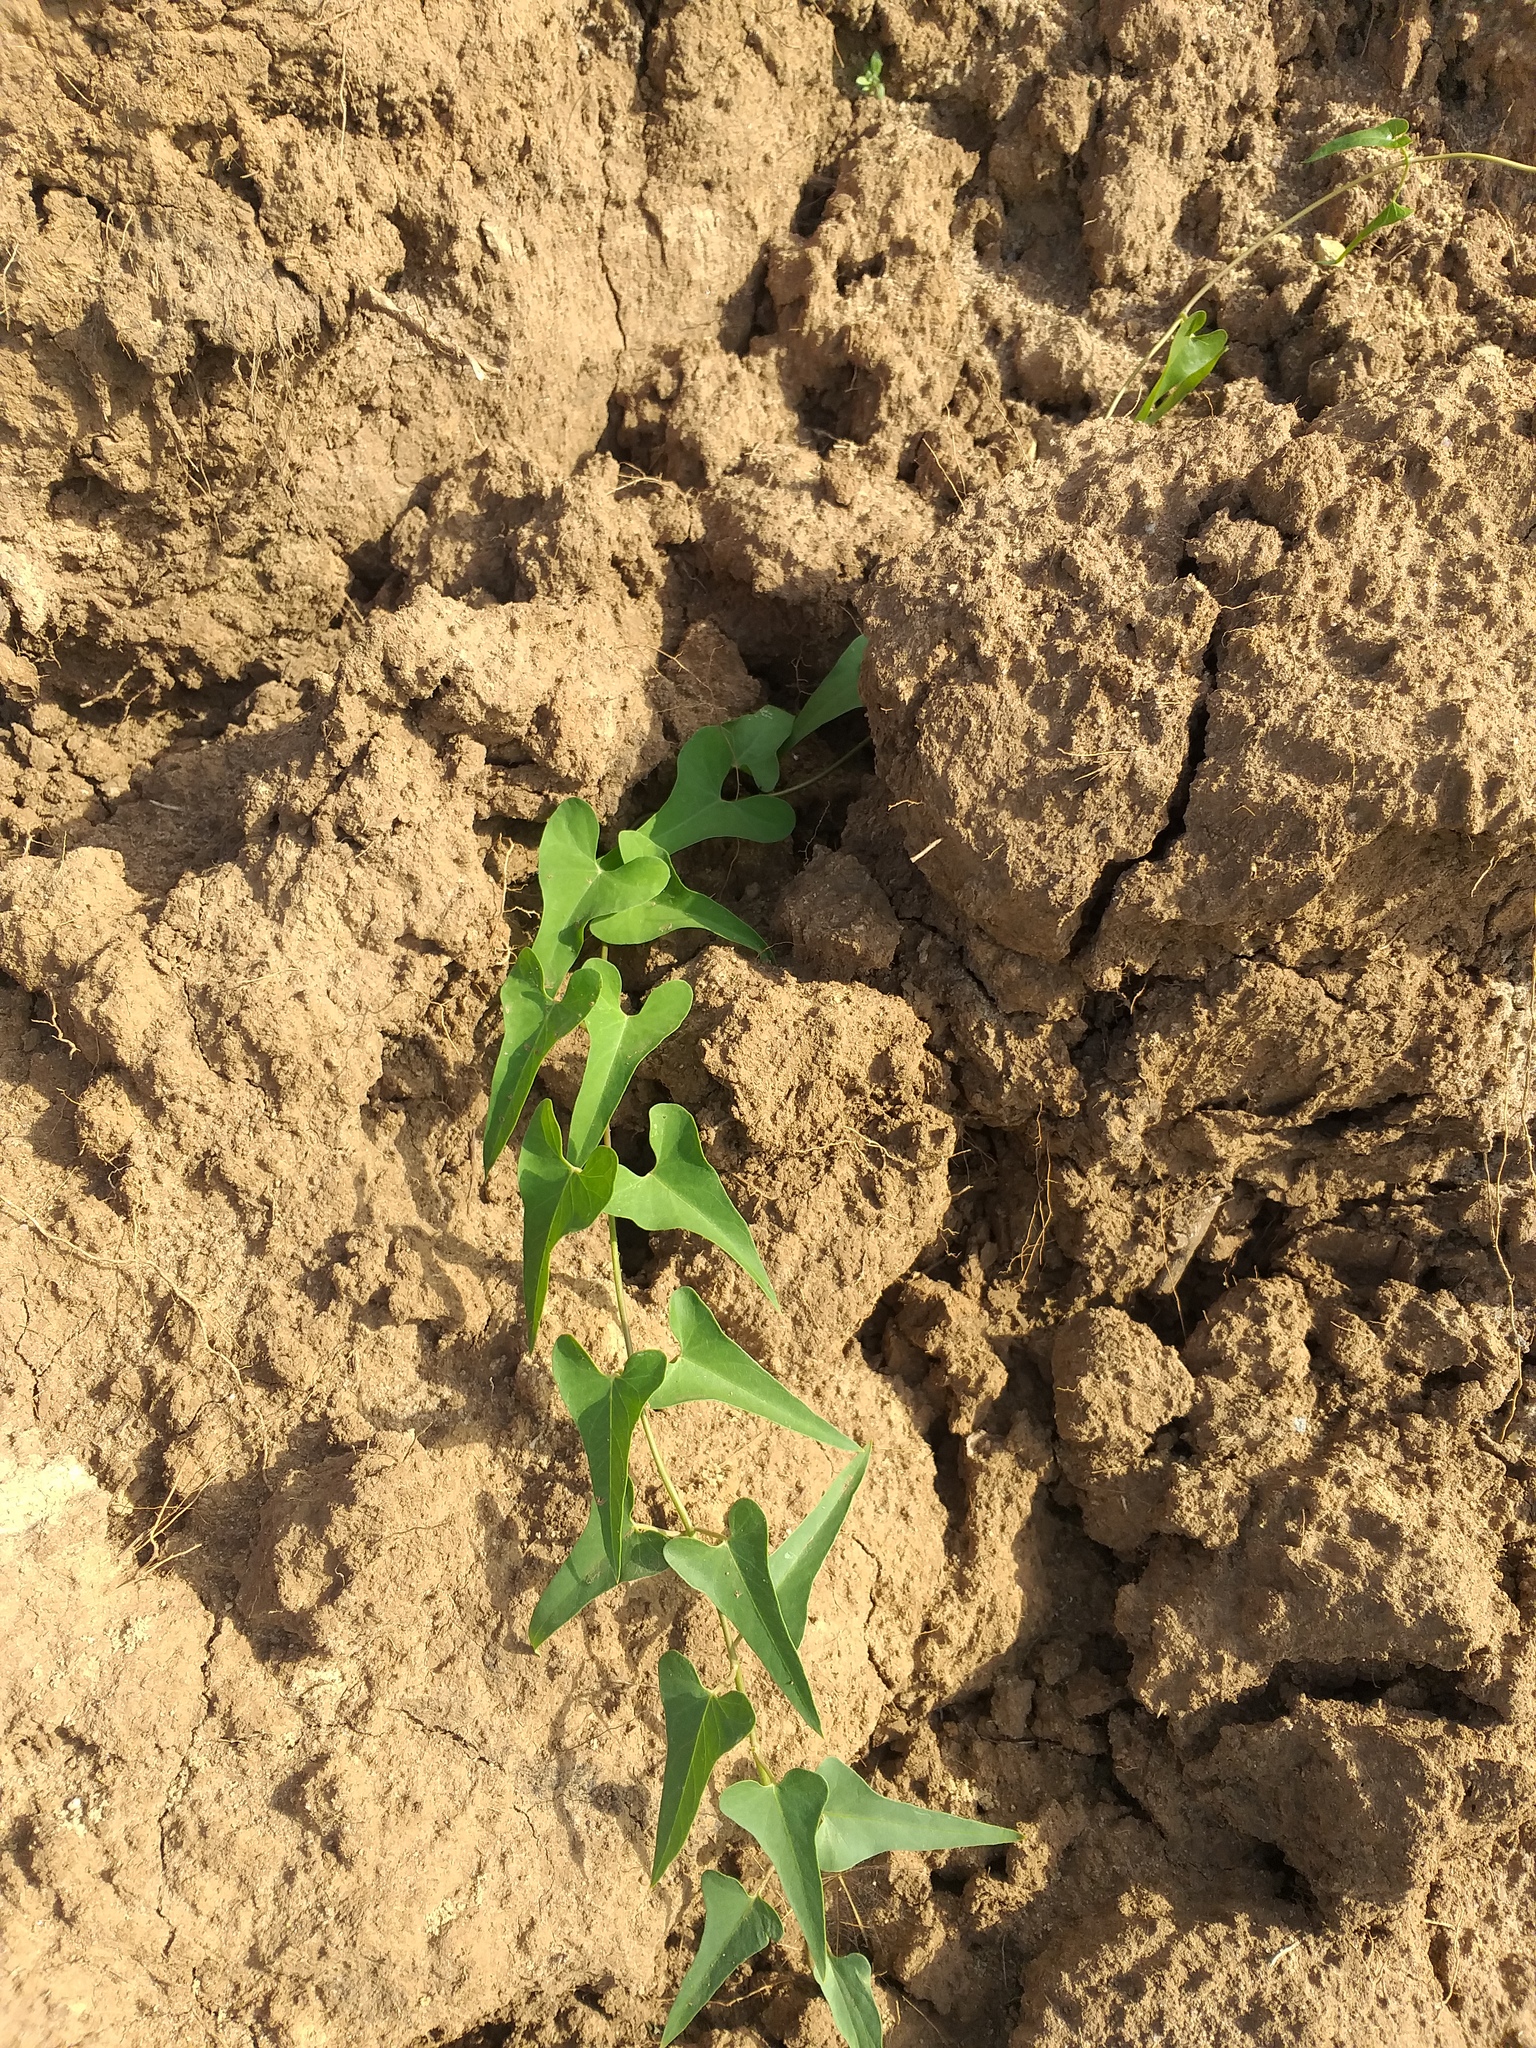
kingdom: Plantae
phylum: Tracheophyta
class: Magnoliopsida
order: Gentianales
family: Apocynaceae
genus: Cynanchum
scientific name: Cynanchum acutum
